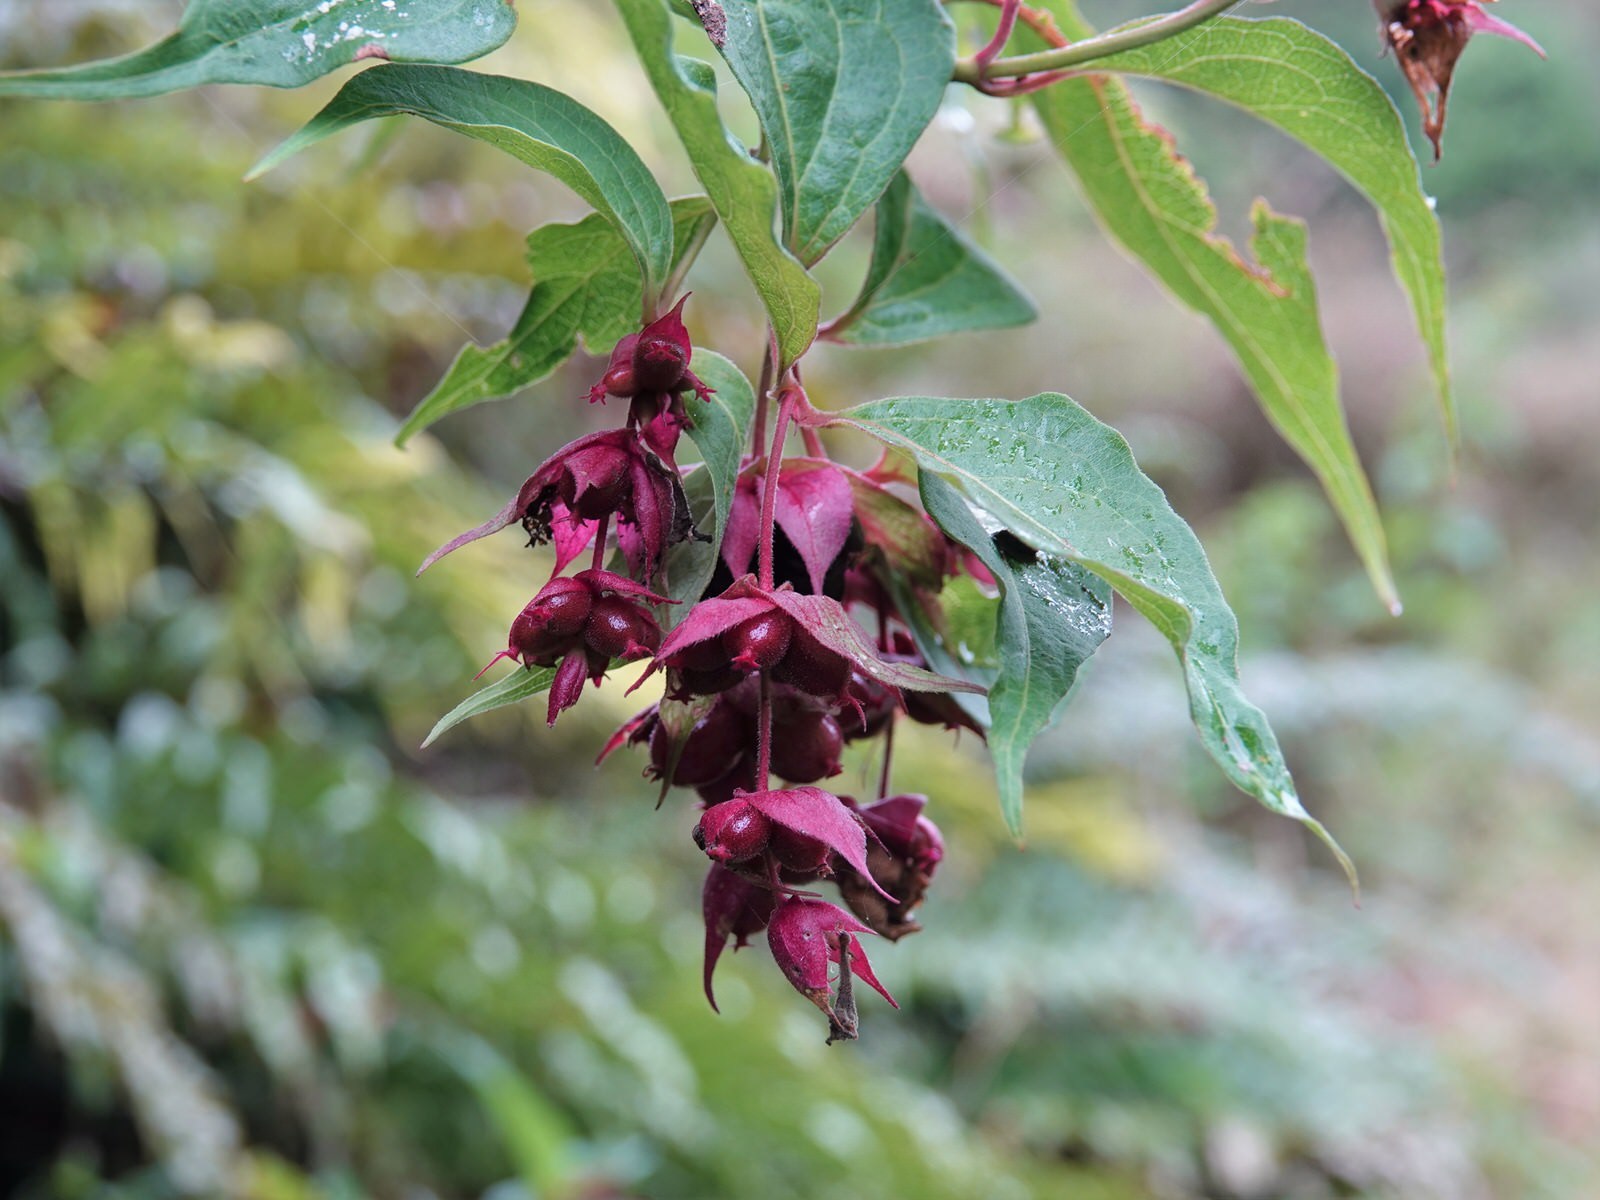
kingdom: Plantae
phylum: Tracheophyta
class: Magnoliopsida
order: Dipsacales
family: Caprifoliaceae
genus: Leycesteria
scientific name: Leycesteria formosa
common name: Himalayan honeysuckle
